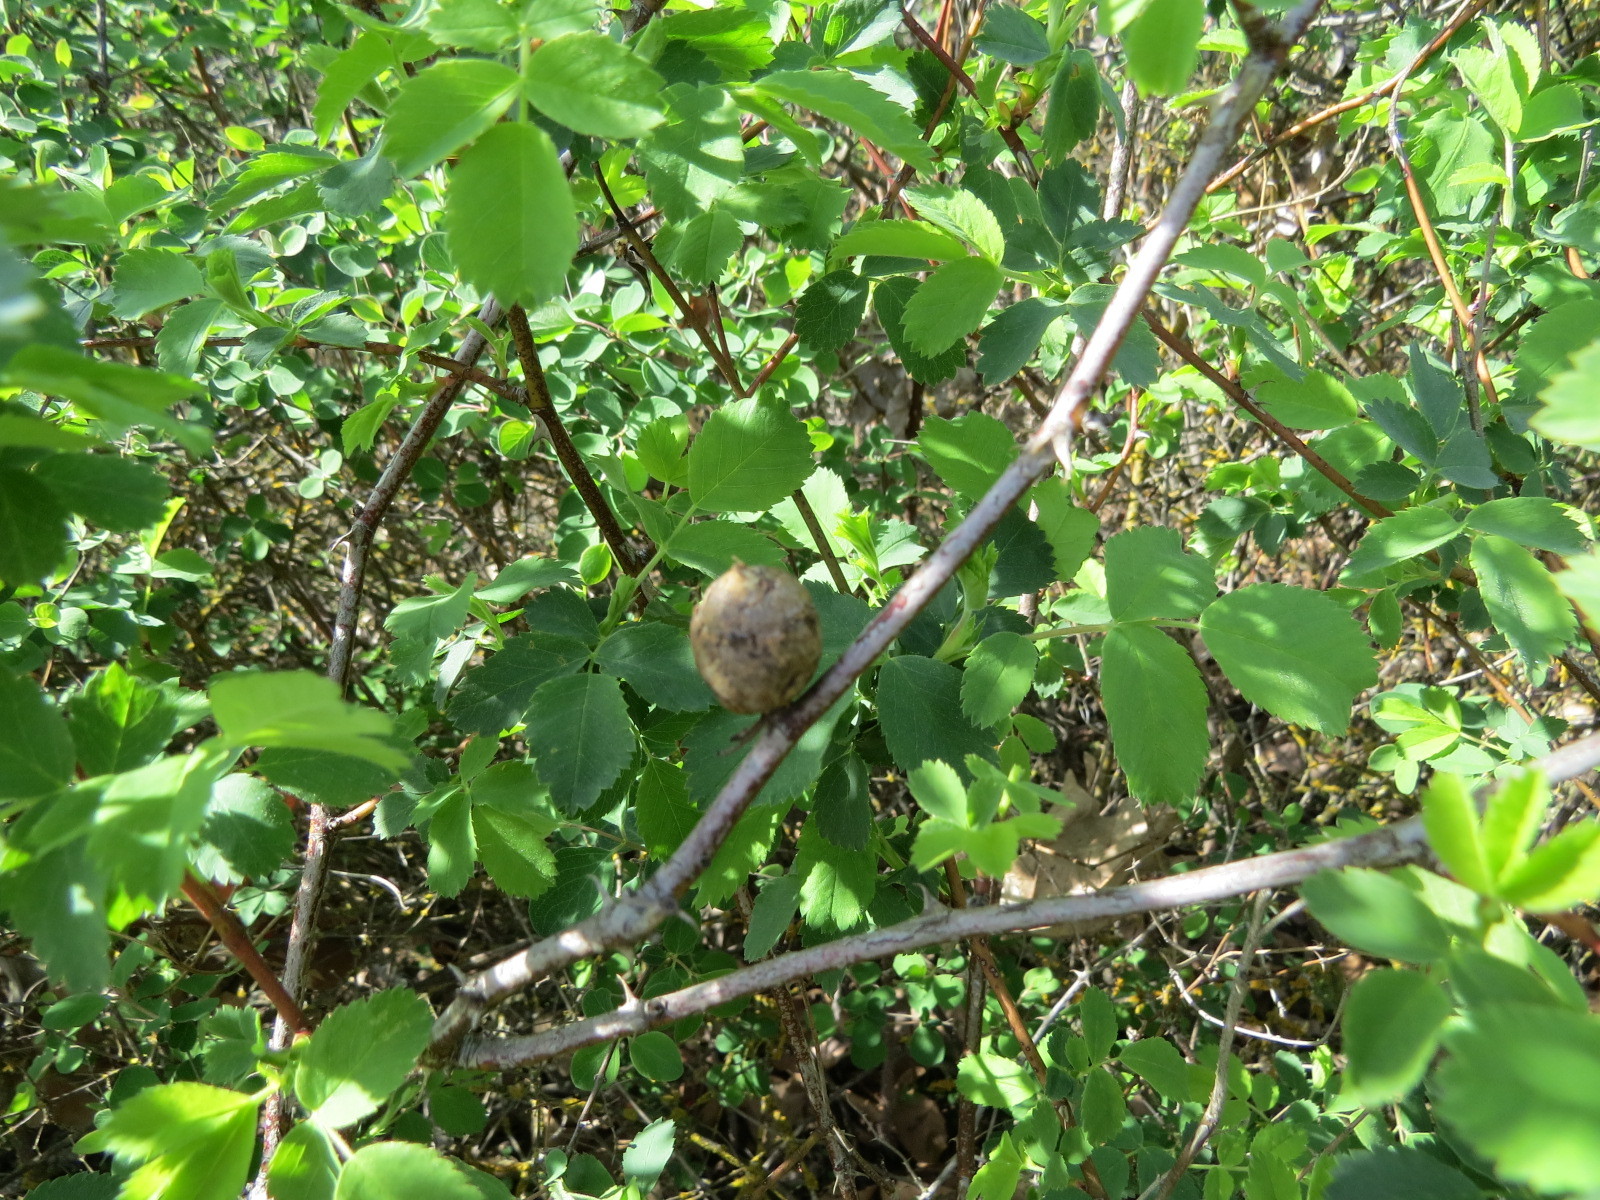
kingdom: Animalia
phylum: Arthropoda
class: Insecta
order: Hymenoptera
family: Cynipidae
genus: Diplolepis
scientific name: Diplolepis nodulosa
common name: Rose stem gall wasp
